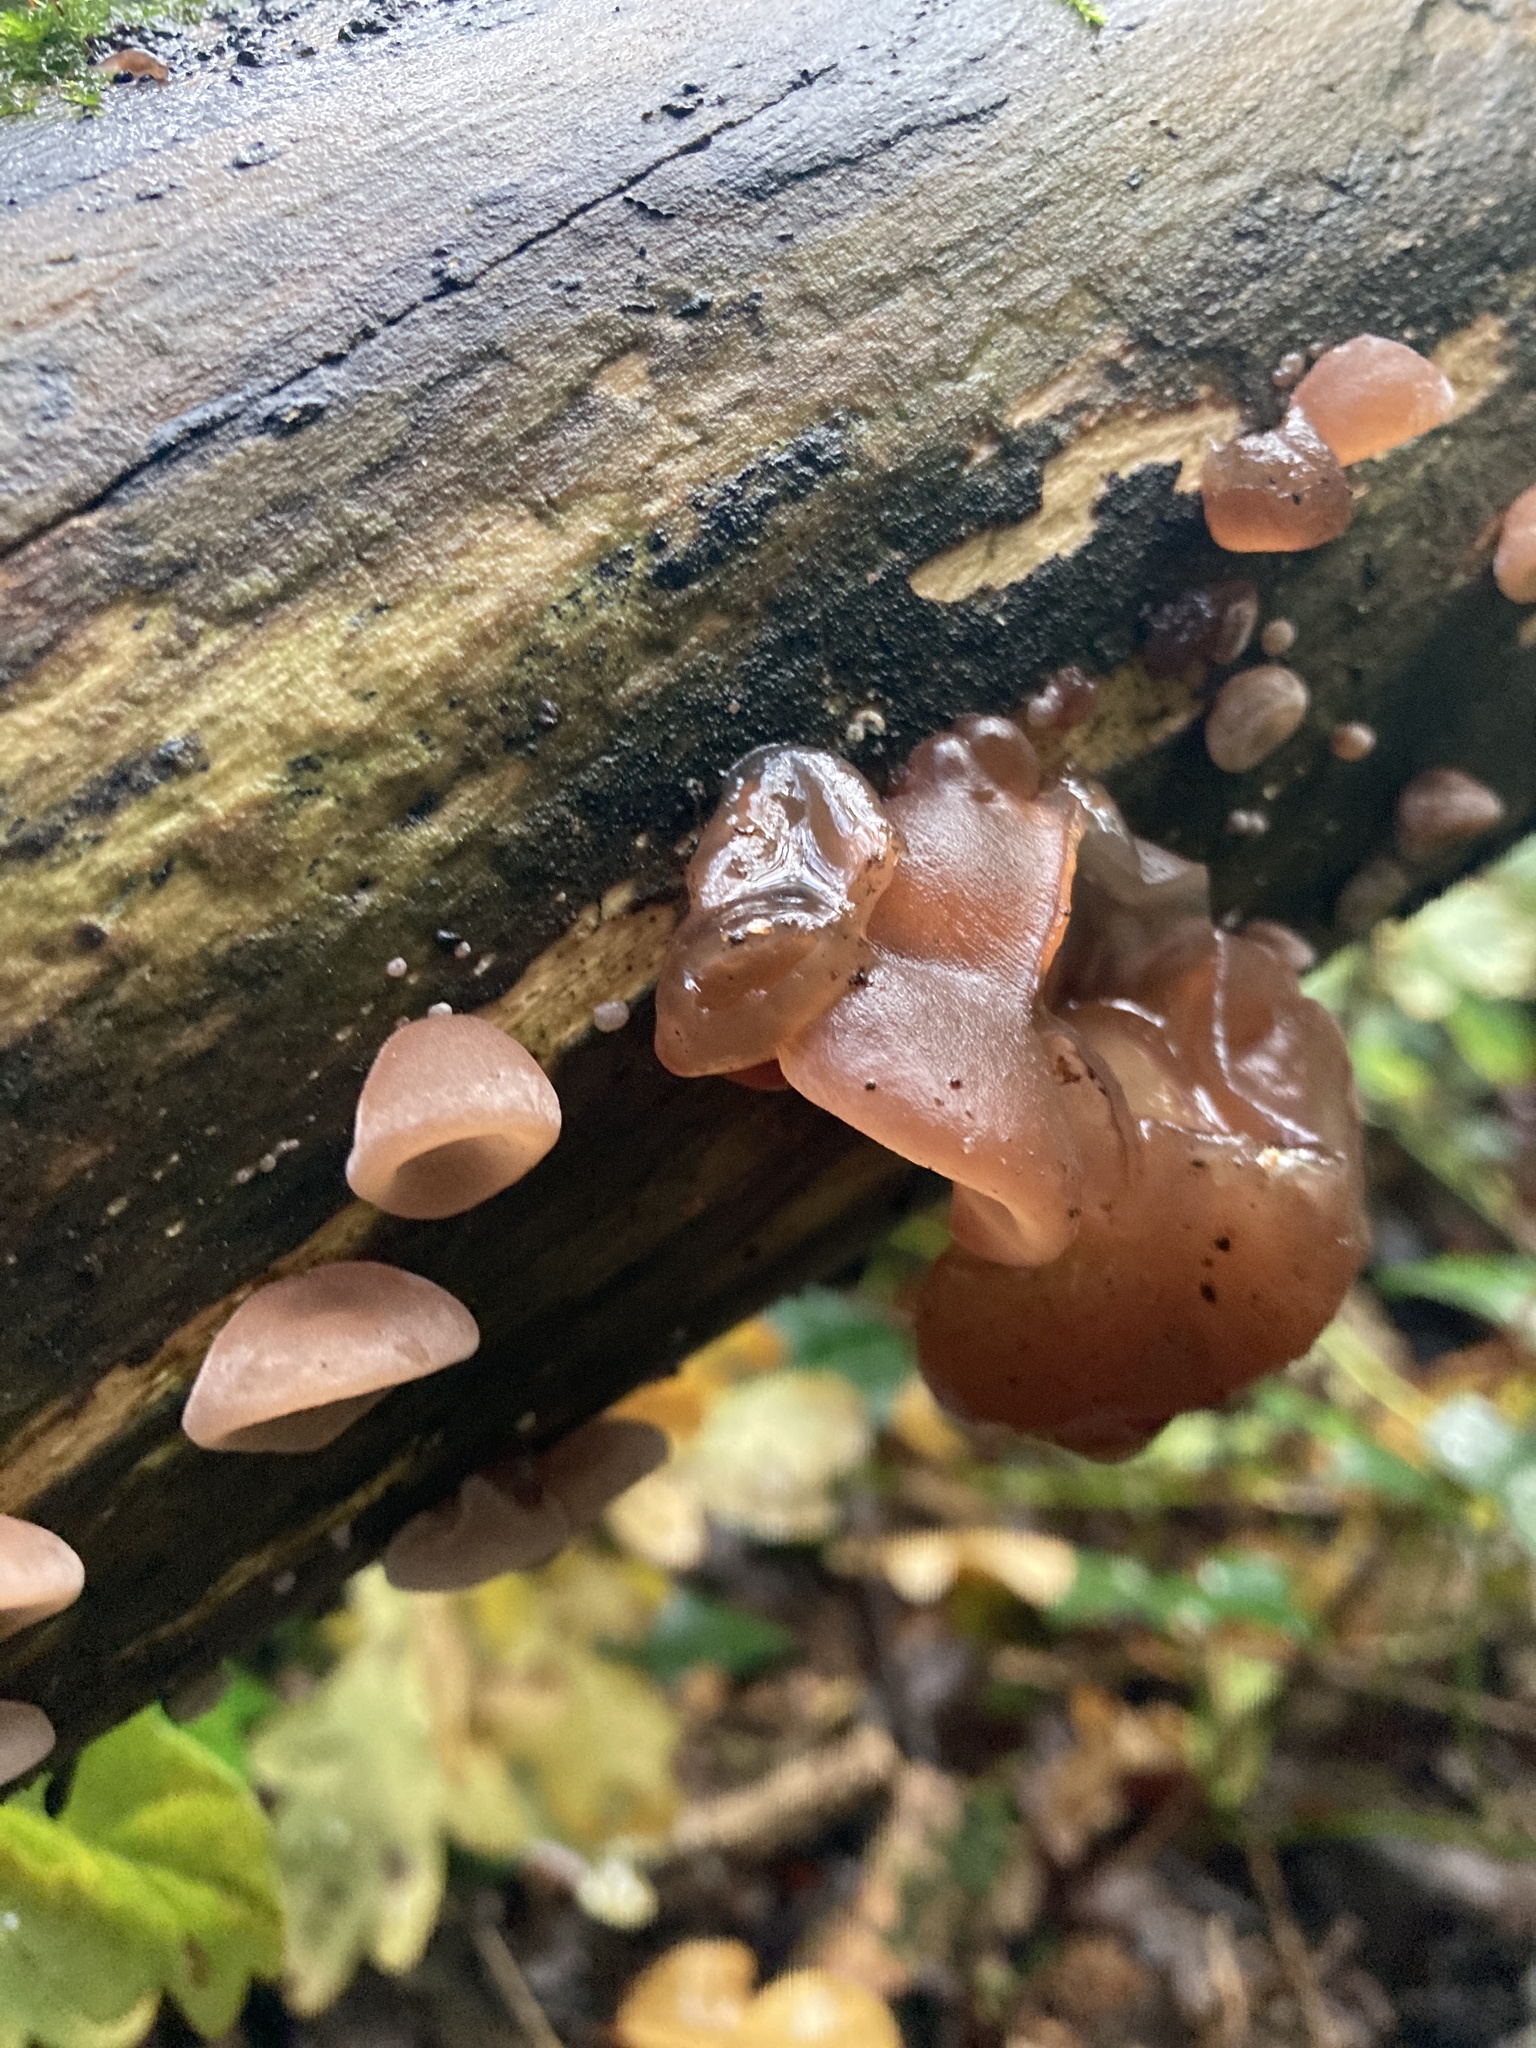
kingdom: Fungi
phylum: Basidiomycota
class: Agaricomycetes
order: Auriculariales
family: Auriculariaceae
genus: Auricularia
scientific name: Auricularia auricula-judae
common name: Jelly ear
